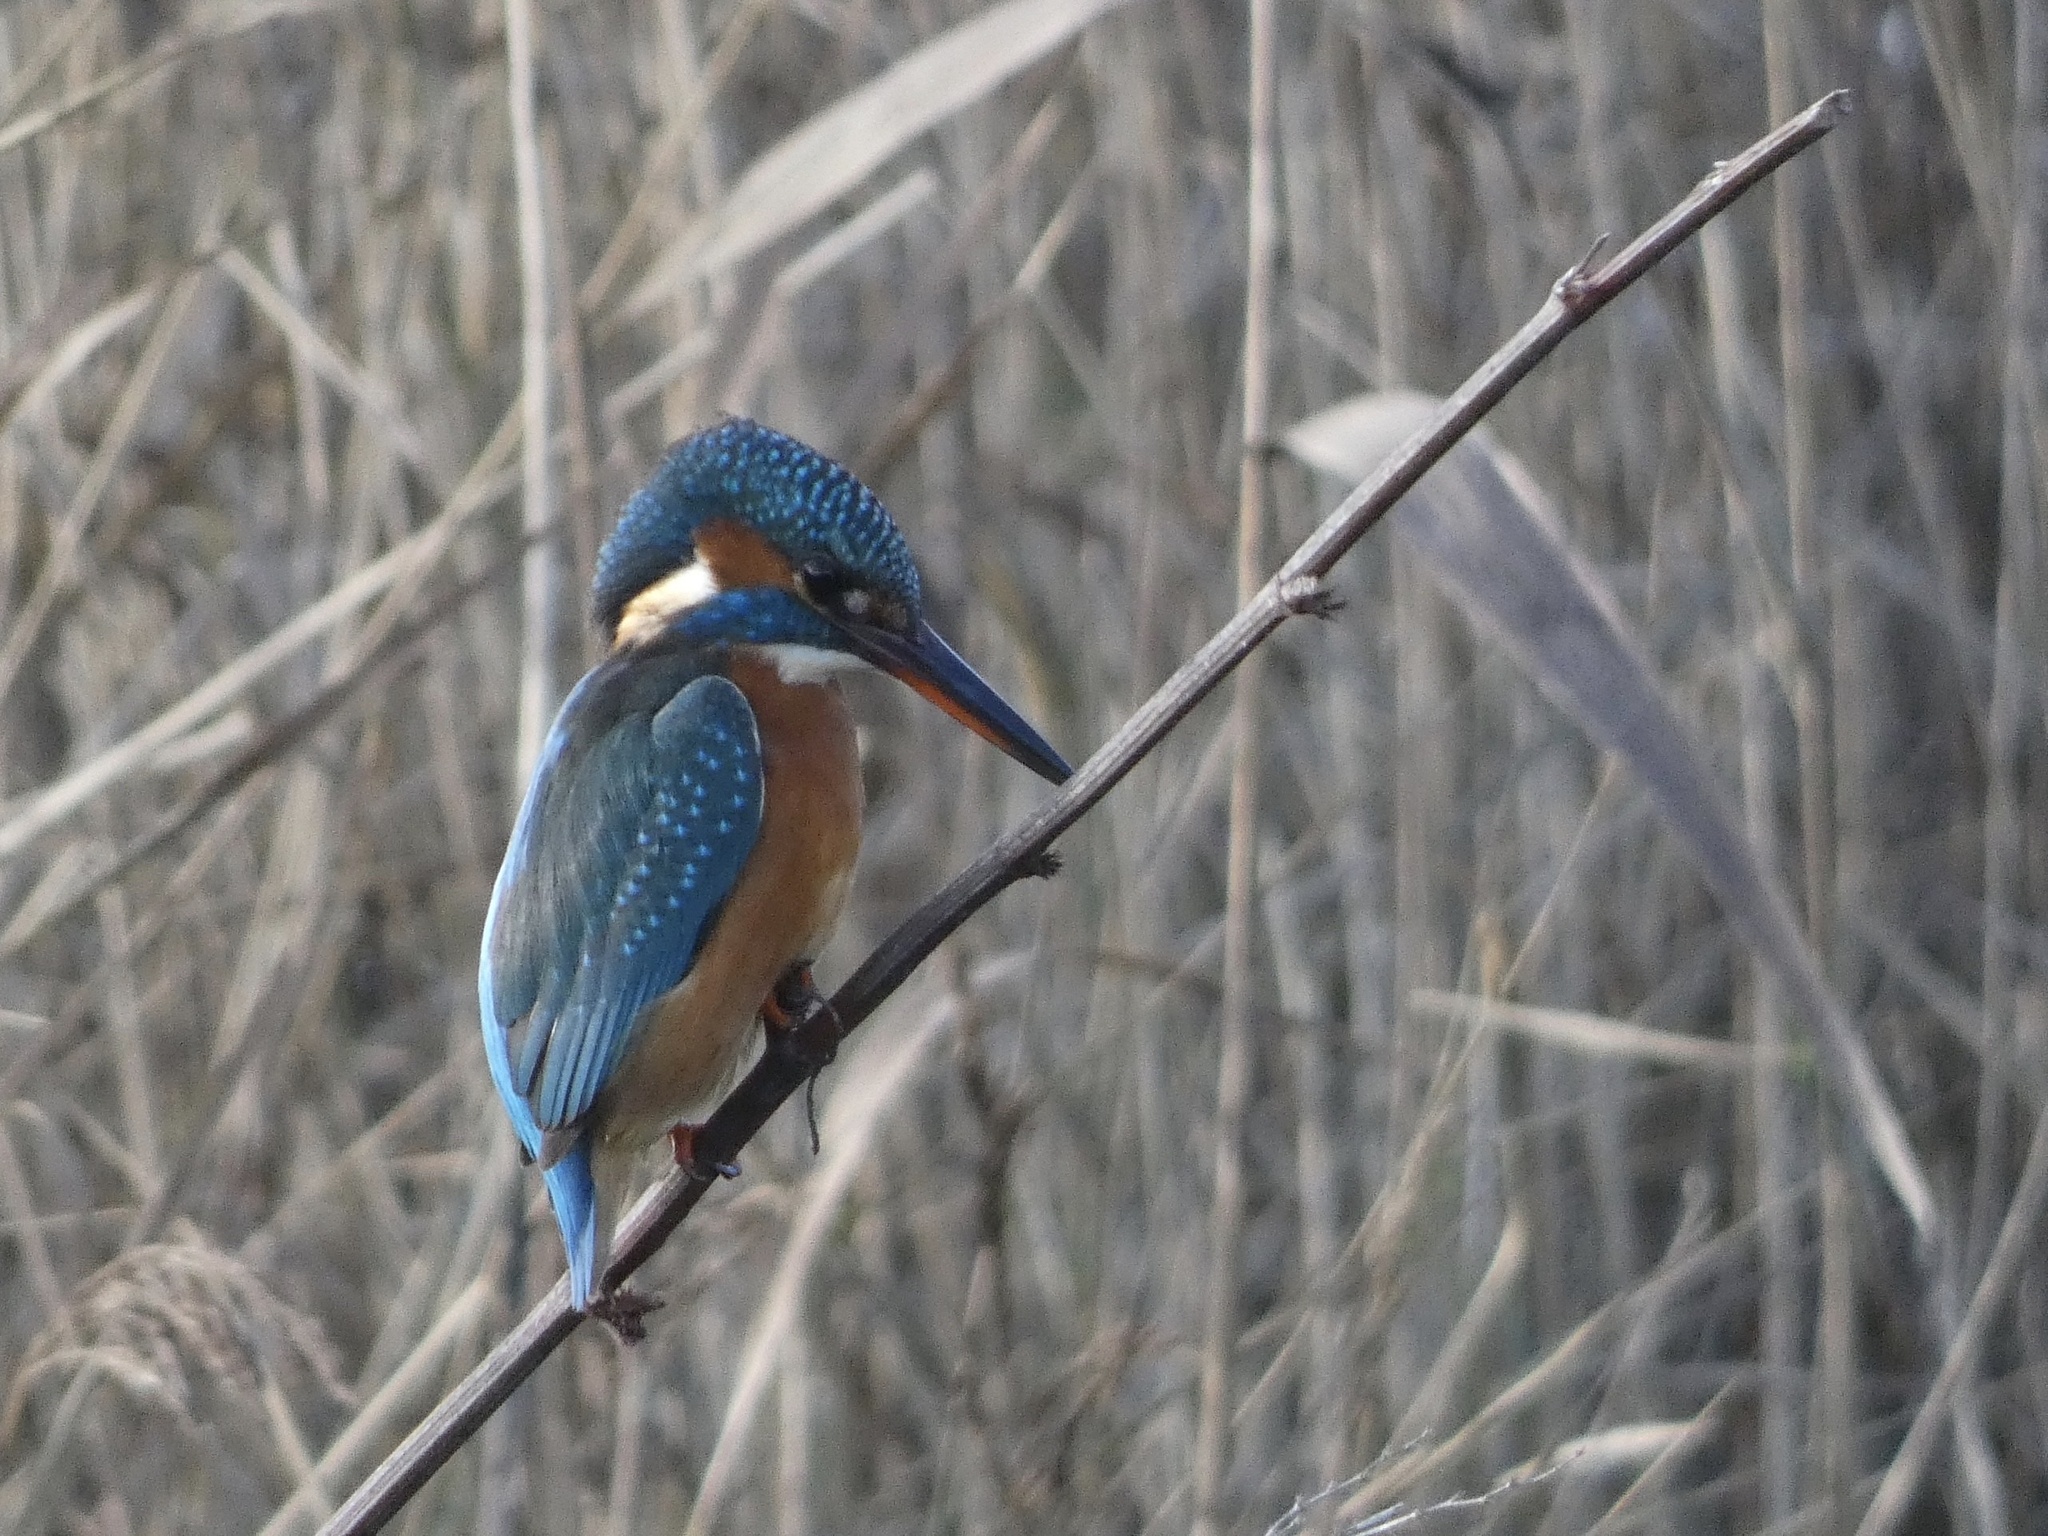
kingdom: Animalia
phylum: Chordata
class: Aves
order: Coraciiformes
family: Alcedinidae
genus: Alcedo
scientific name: Alcedo atthis
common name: Common kingfisher
